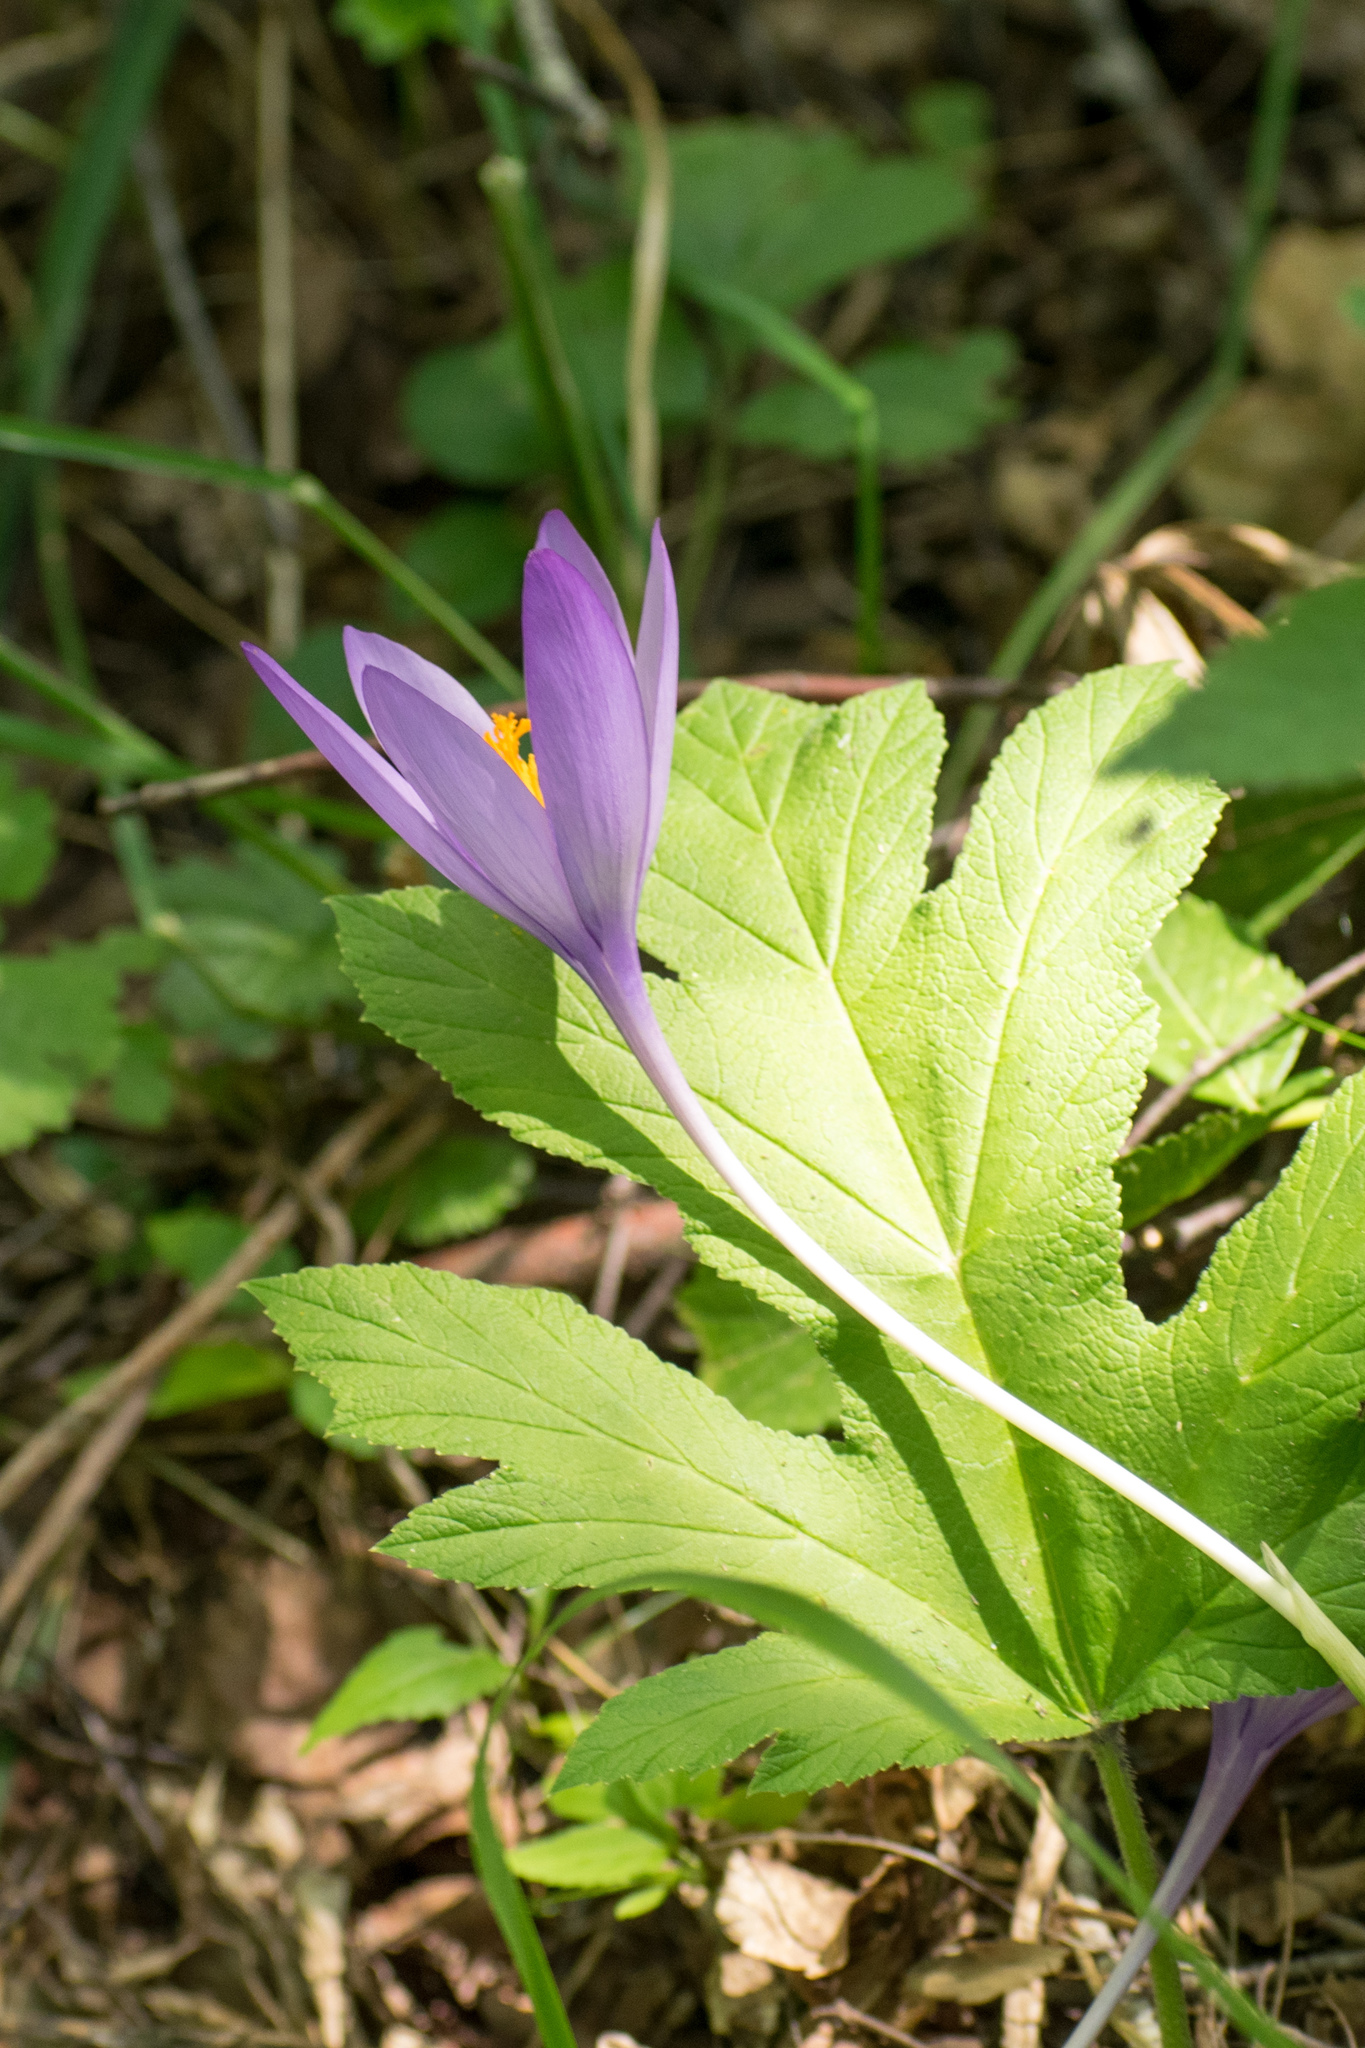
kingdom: Plantae
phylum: Tracheophyta
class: Liliopsida
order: Asparagales
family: Iridaceae
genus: Crocus
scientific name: Crocus nudiflorus
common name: Autumn crocus
